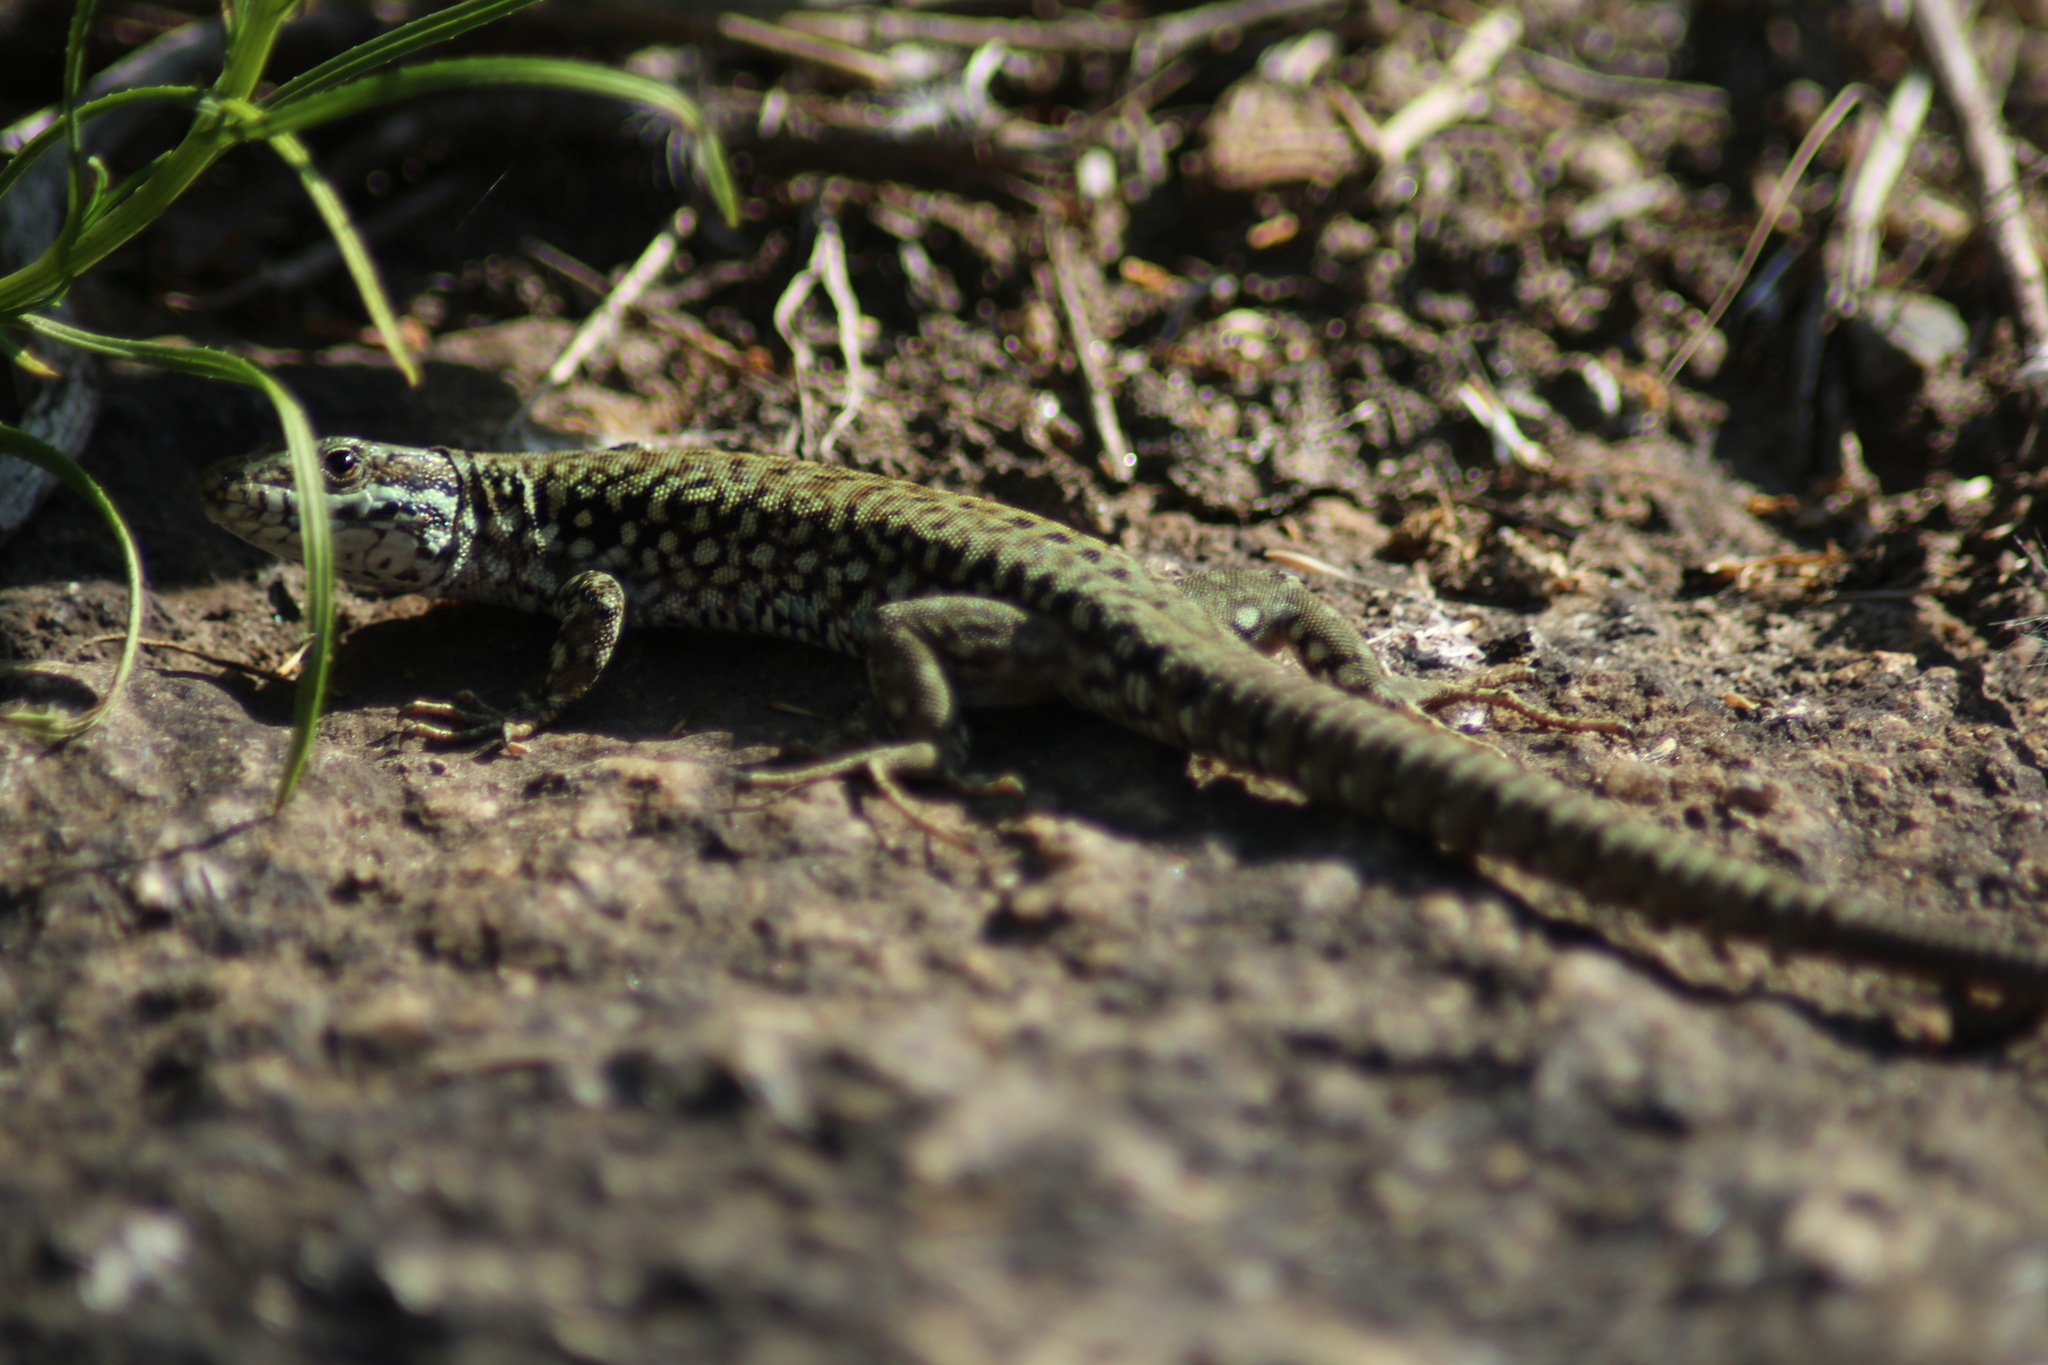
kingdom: Animalia
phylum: Chordata
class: Squamata
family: Lacertidae
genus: Podarcis
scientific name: Podarcis muralis
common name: Common wall lizard
